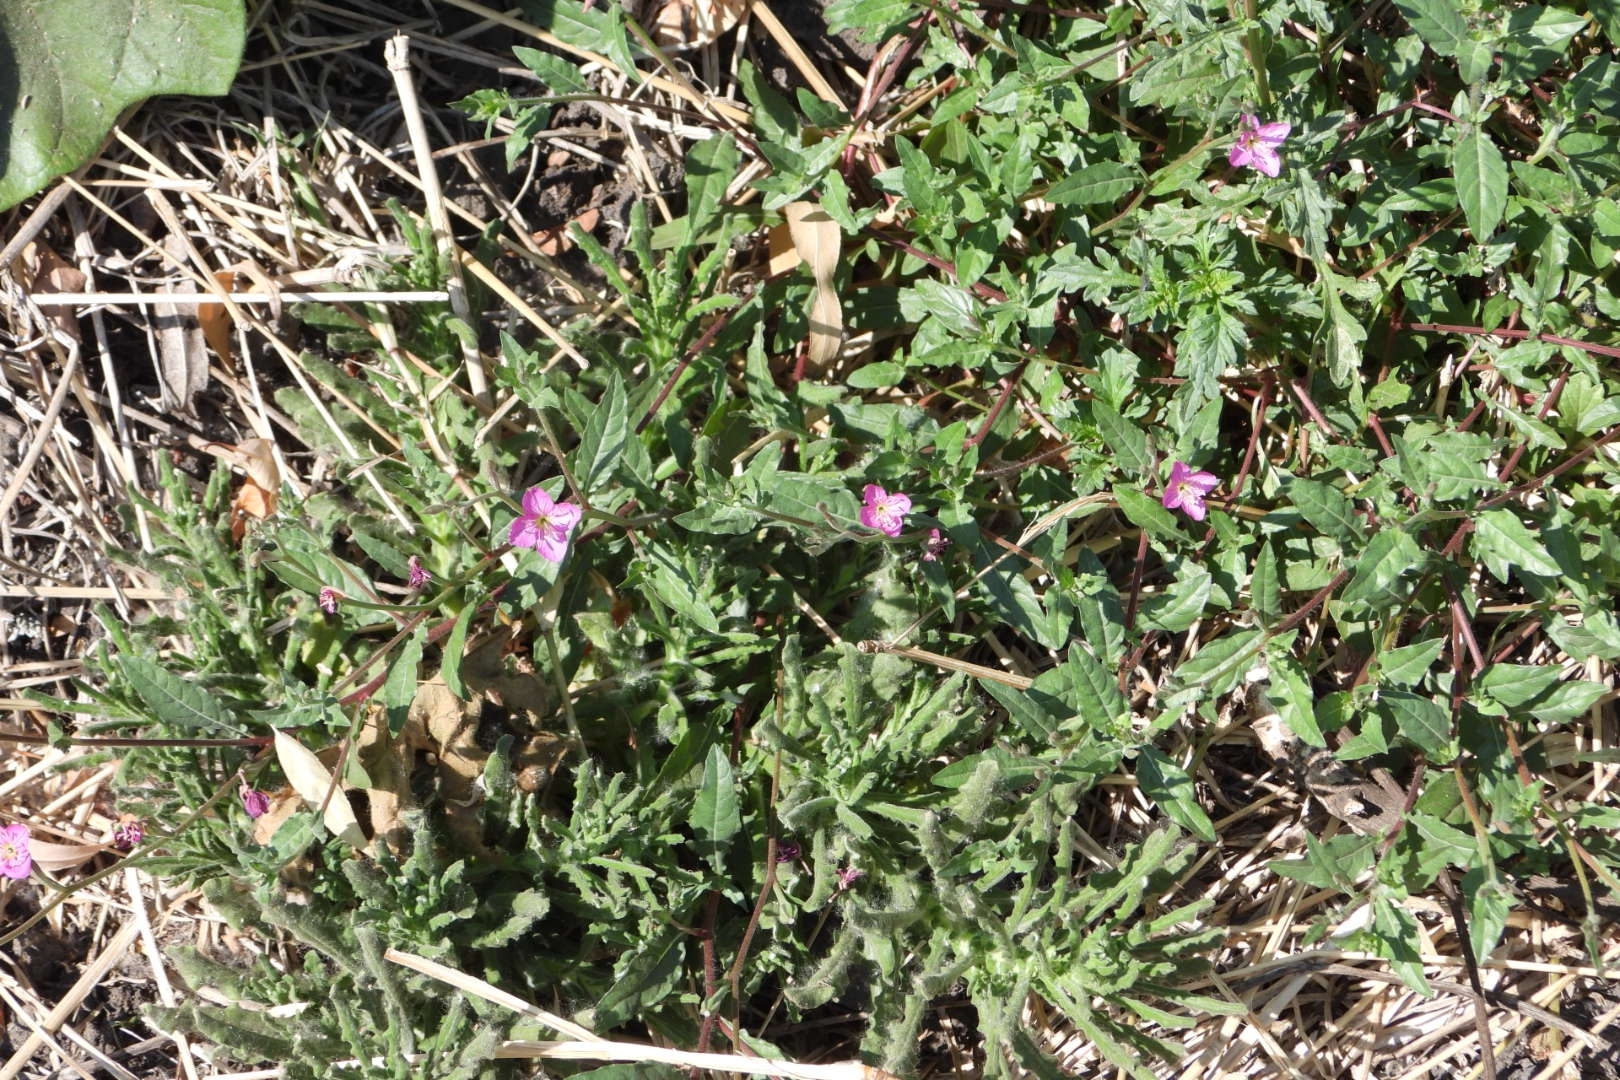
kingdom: Plantae
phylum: Tracheophyta
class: Magnoliopsida
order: Myrtales
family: Onagraceae
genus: Oenothera
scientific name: Oenothera rosea
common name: Rosy evening-primrose
